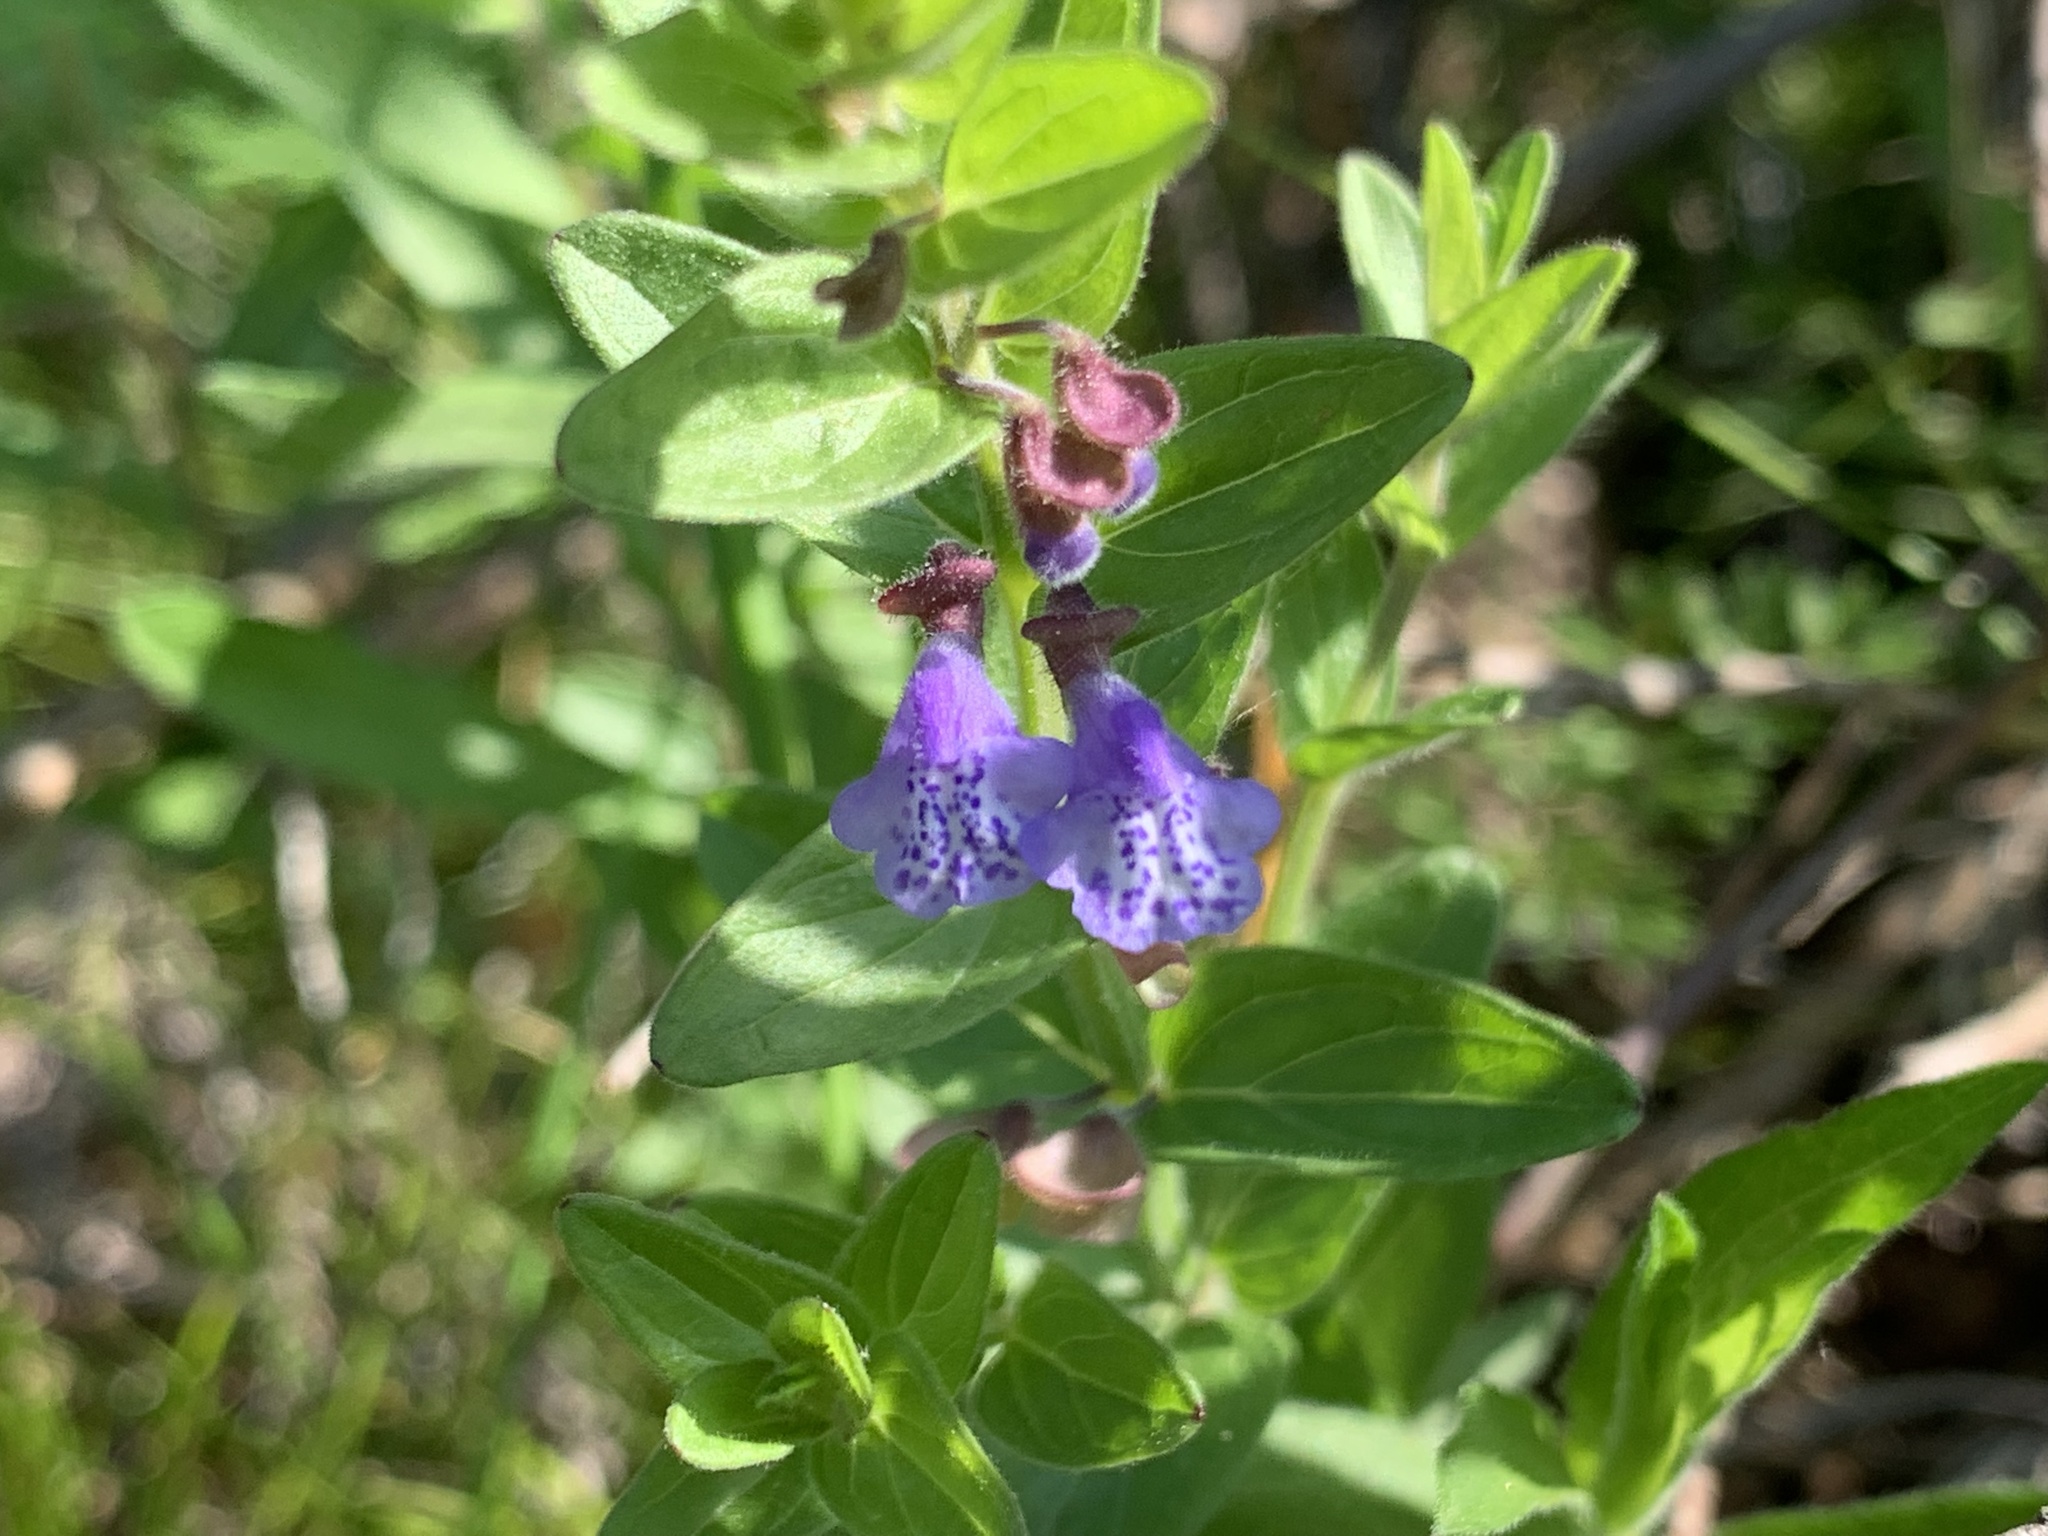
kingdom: Plantae
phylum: Tracheophyta
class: Magnoliopsida
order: Lamiales
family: Lamiaceae
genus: Scutellaria
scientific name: Scutellaria parvula
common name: Little scullcap
